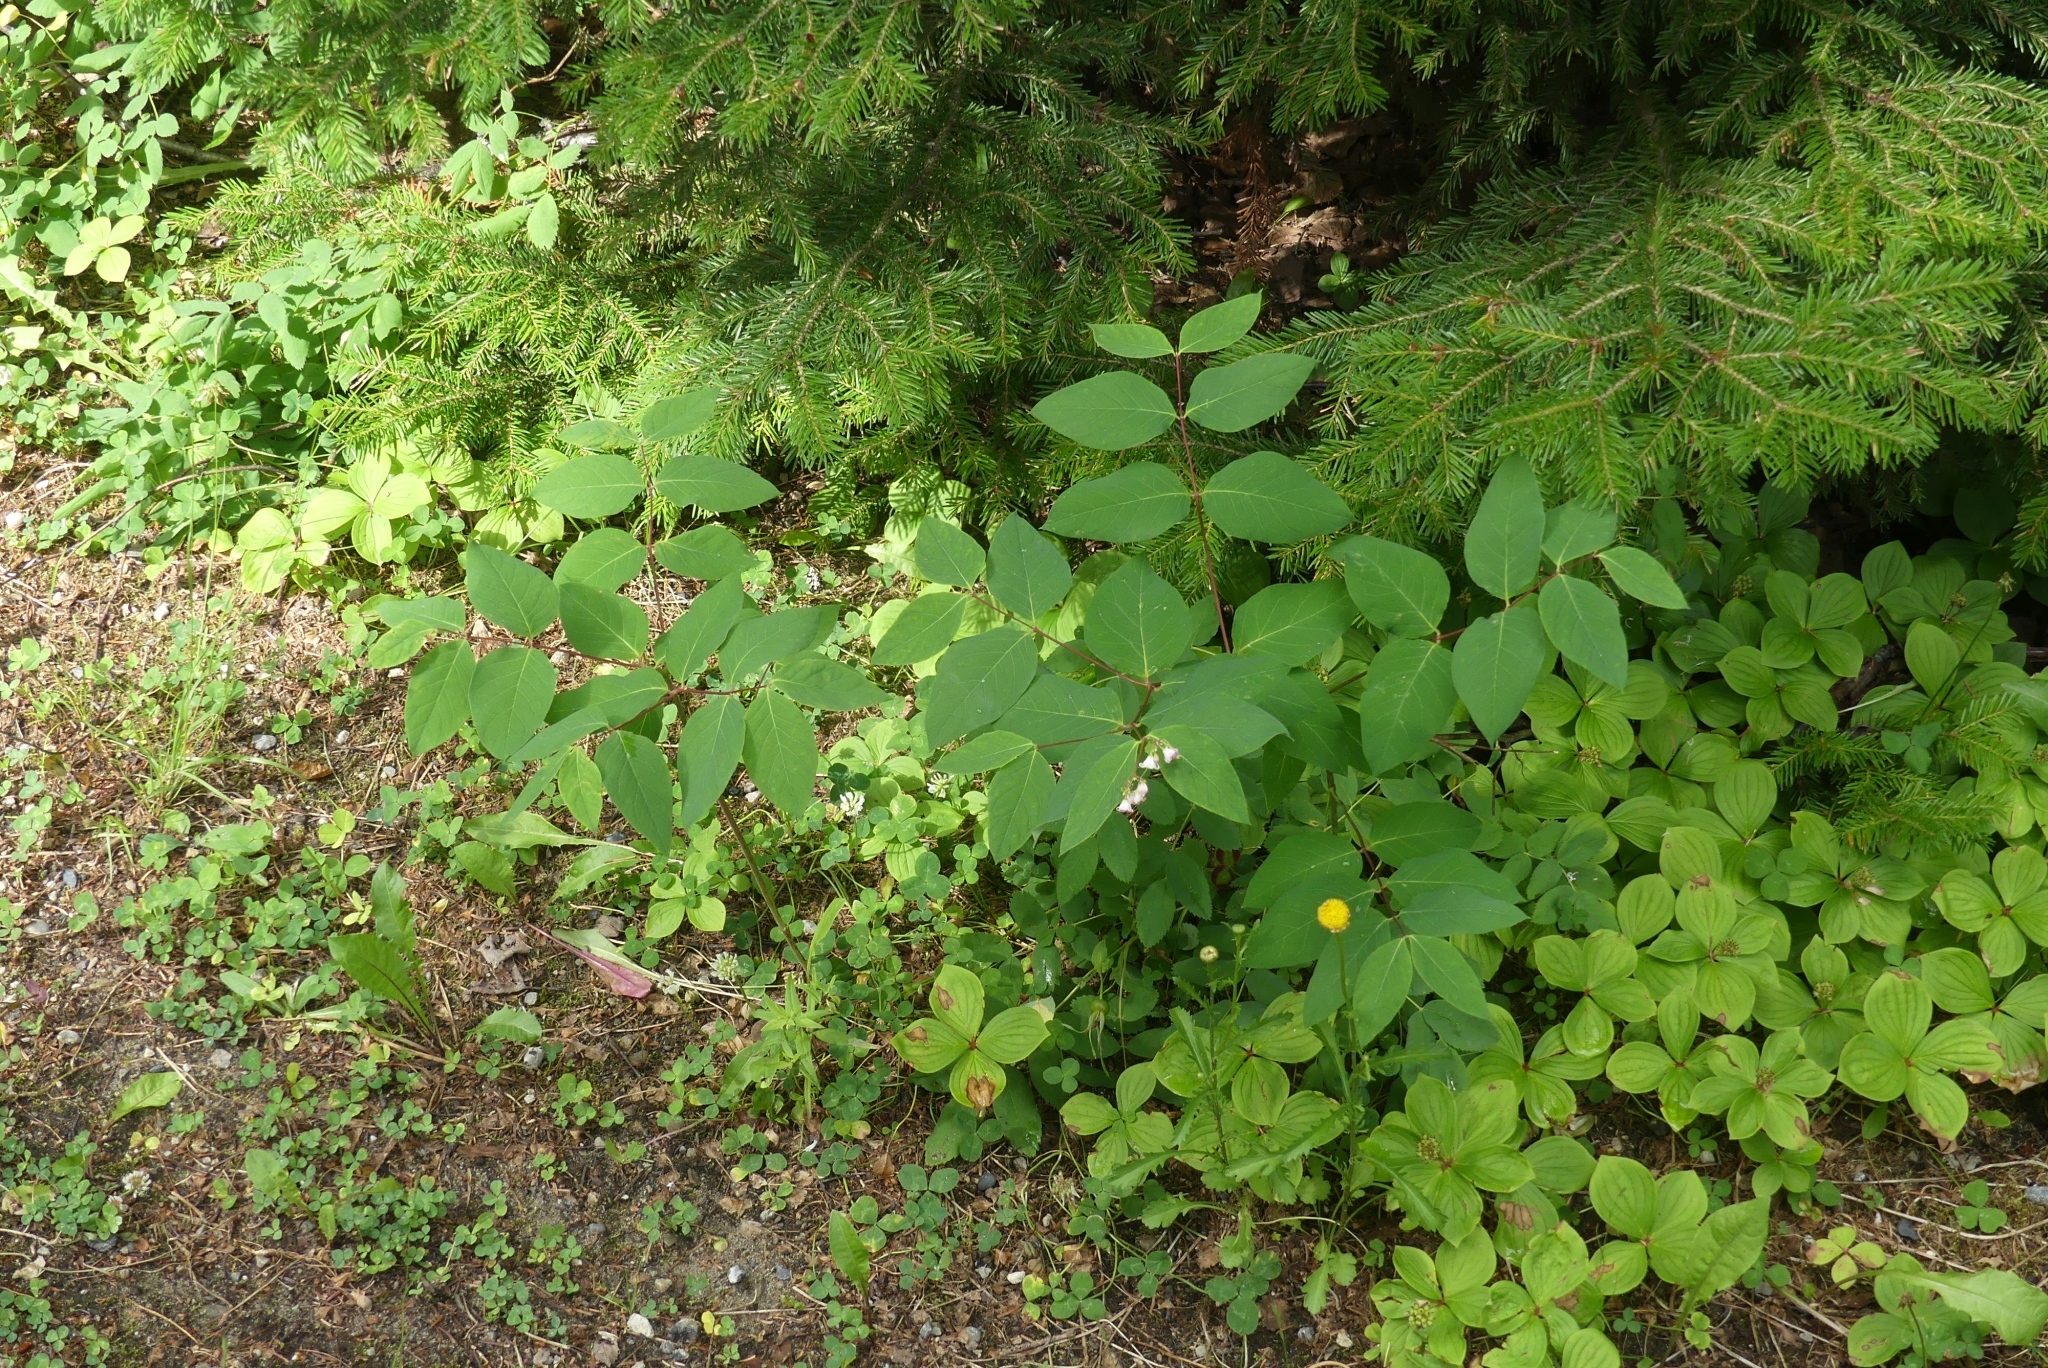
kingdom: Plantae
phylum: Tracheophyta
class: Magnoliopsida
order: Gentianales
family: Apocynaceae
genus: Apocynum
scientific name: Apocynum androsaemifolium
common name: Spreading dogbane
